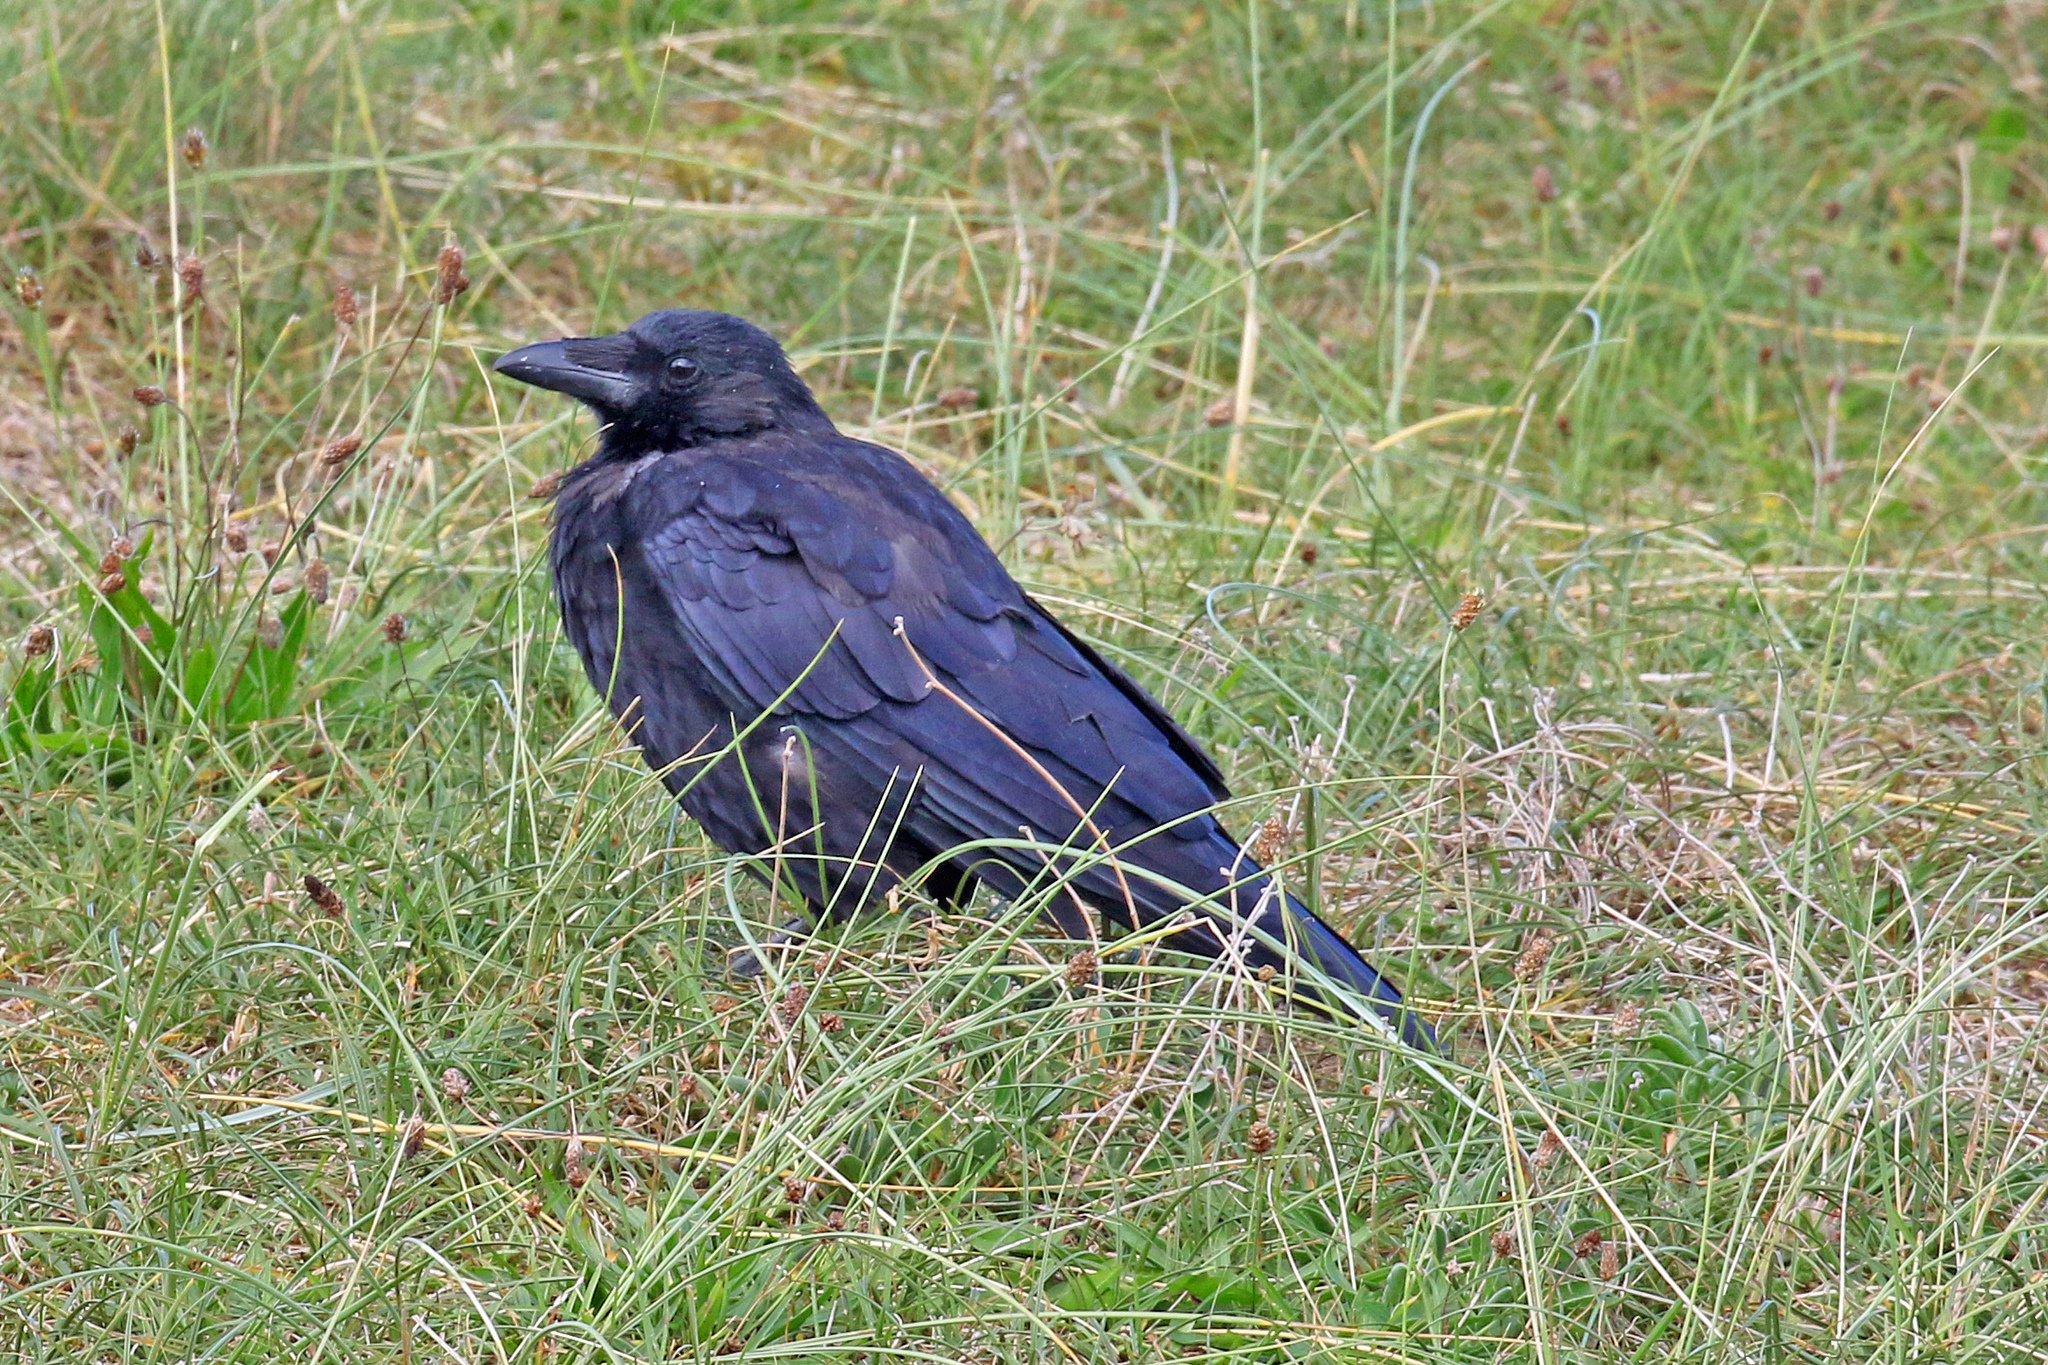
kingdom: Animalia
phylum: Chordata
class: Aves
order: Passeriformes
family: Corvidae
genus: Corvus
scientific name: Corvus corone
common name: Carrion crow
